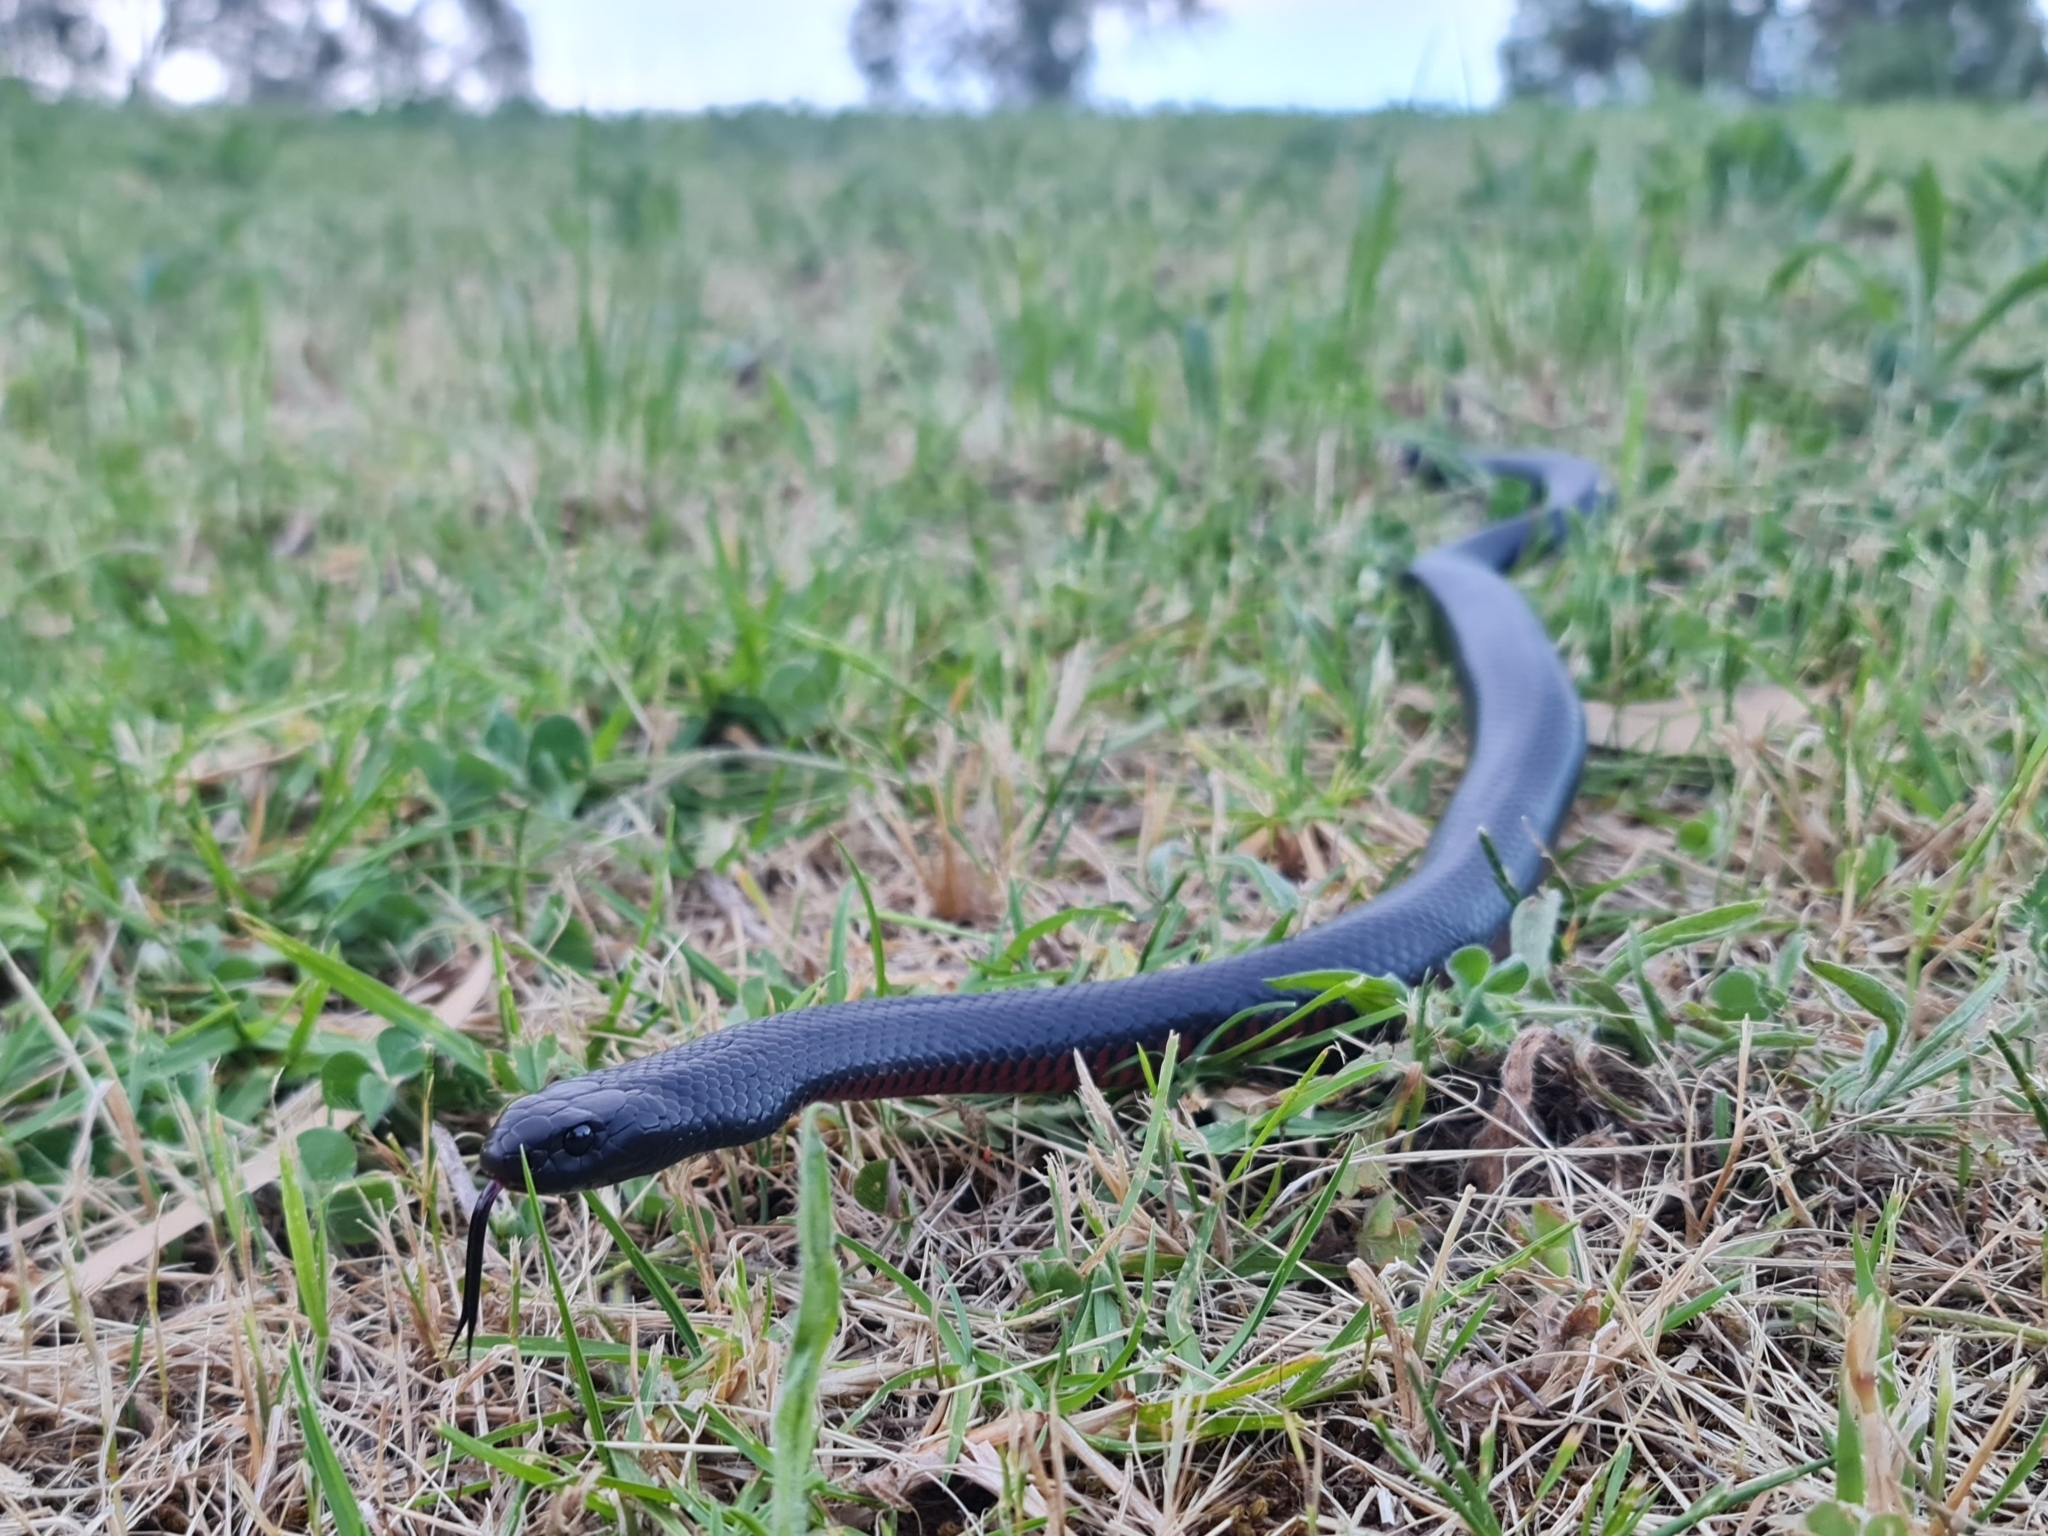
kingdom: Animalia
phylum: Chordata
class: Squamata
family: Elapidae
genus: Pseudechis
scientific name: Pseudechis porphyriacus
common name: Australian black snake
